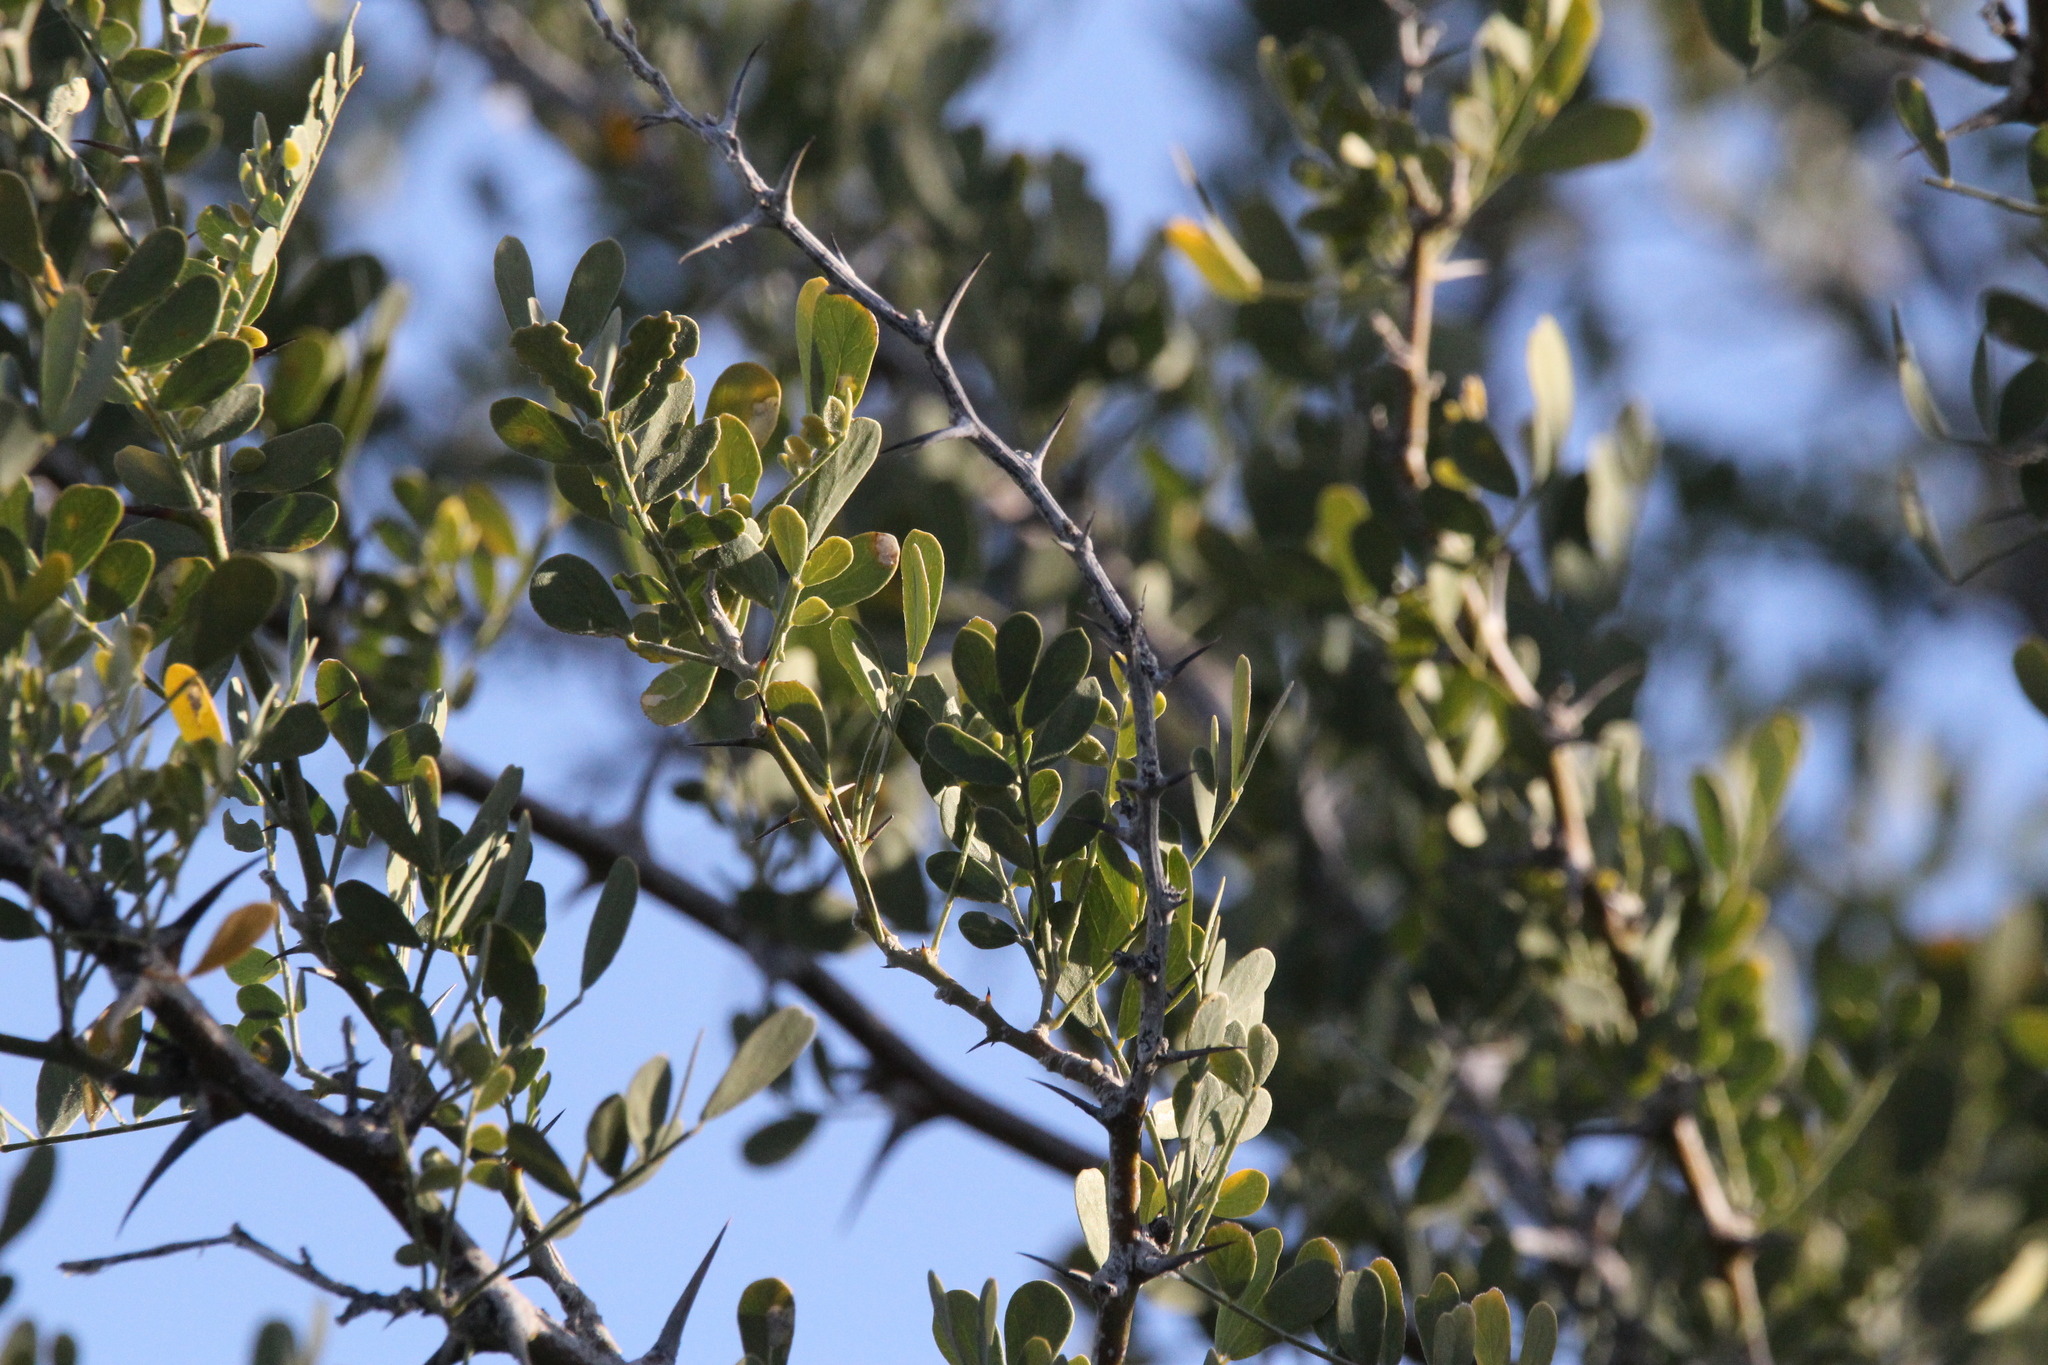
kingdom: Plantae
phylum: Tracheophyta
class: Magnoliopsida
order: Fabales
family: Fabaceae
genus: Olneya
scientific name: Olneya tesota
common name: Desert ironwood
